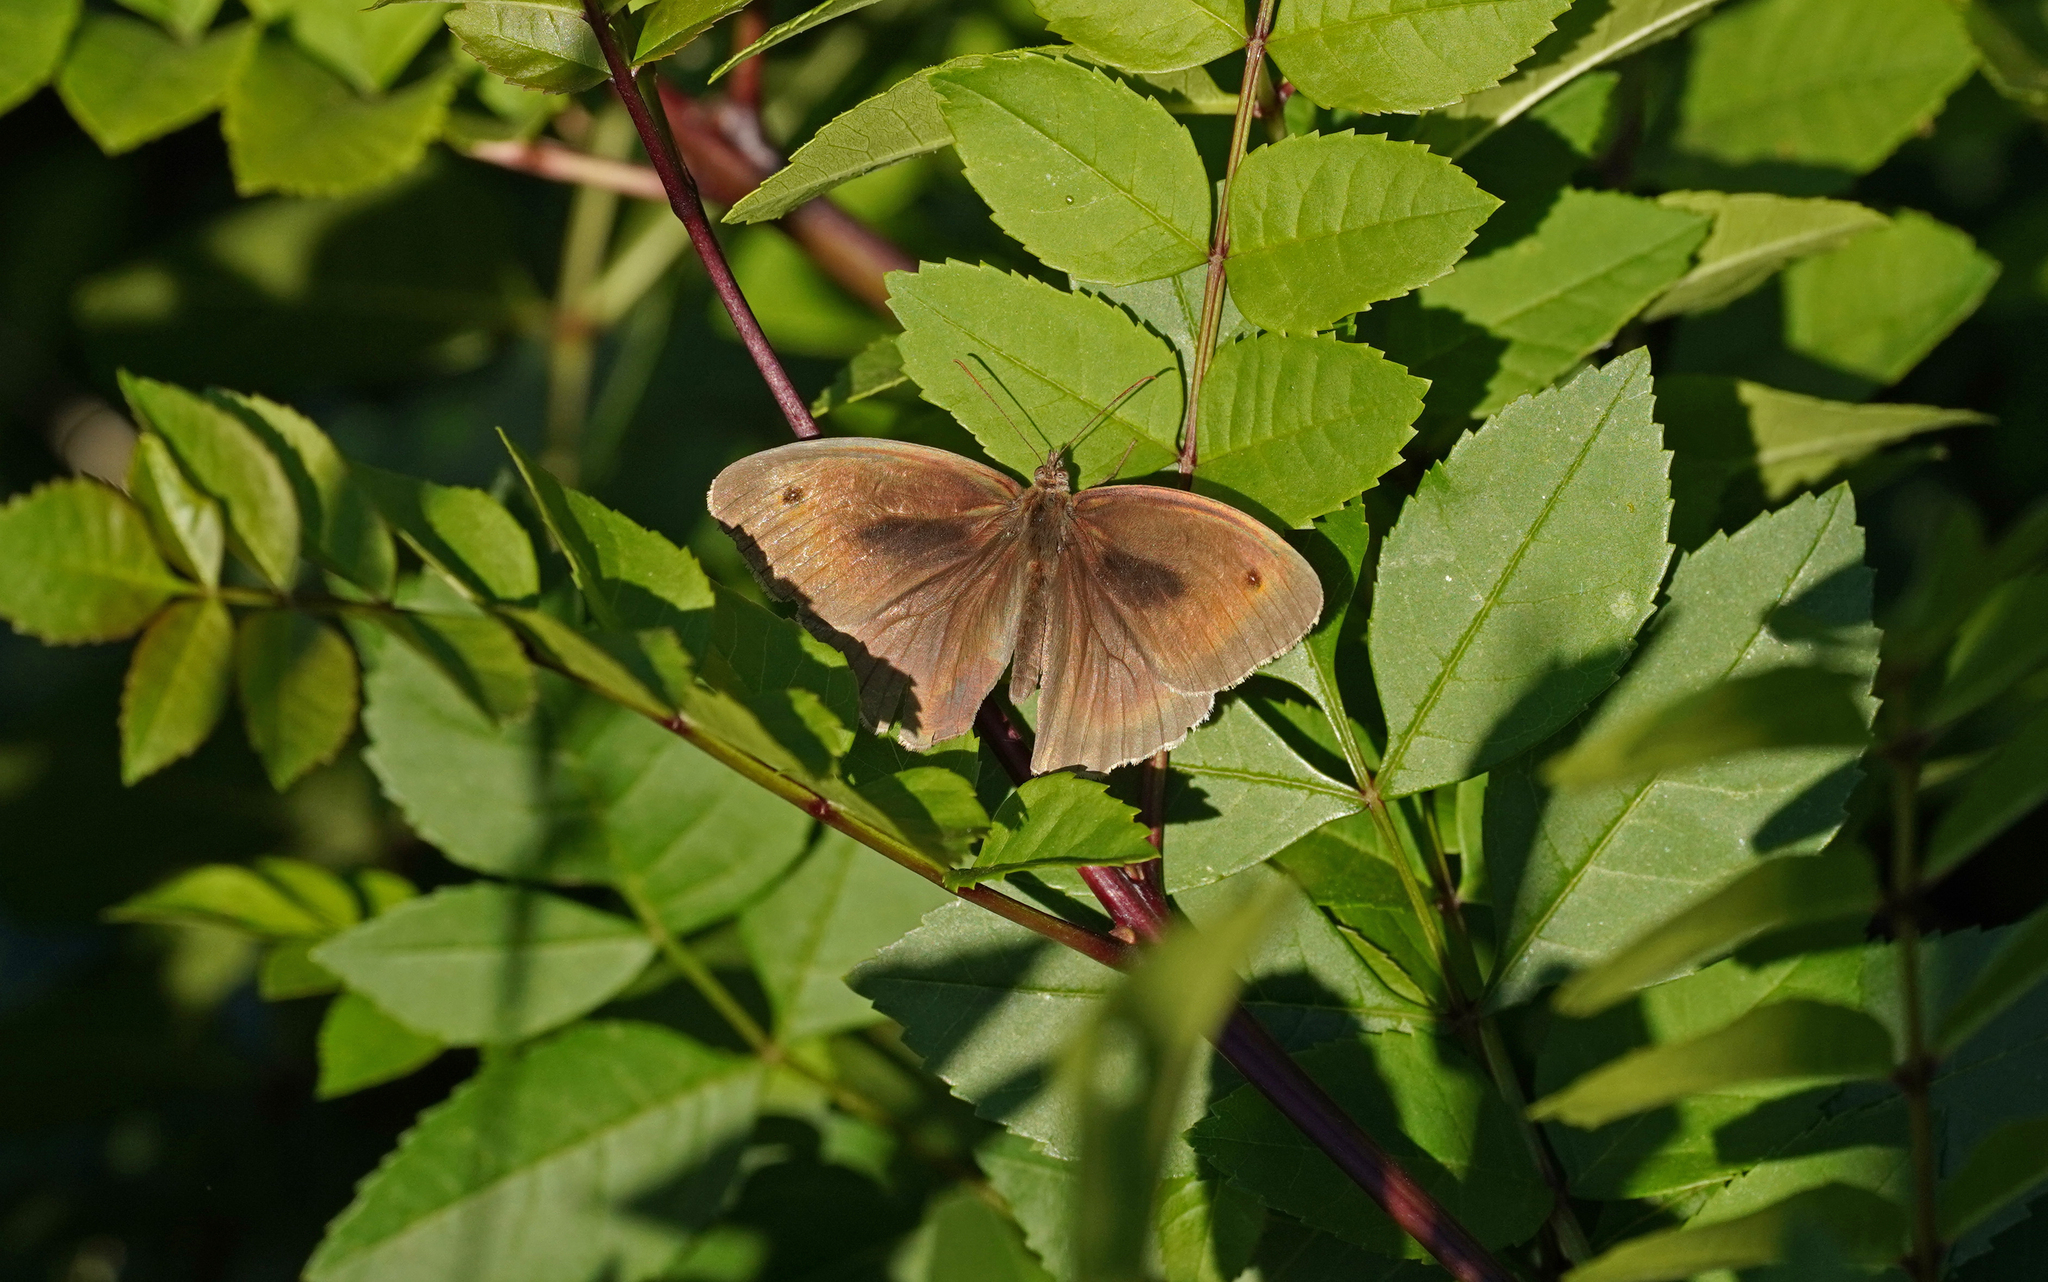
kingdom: Animalia
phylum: Arthropoda
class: Insecta
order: Lepidoptera
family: Nymphalidae
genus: Maniola
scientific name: Maniola jurtina
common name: Meadow brown
